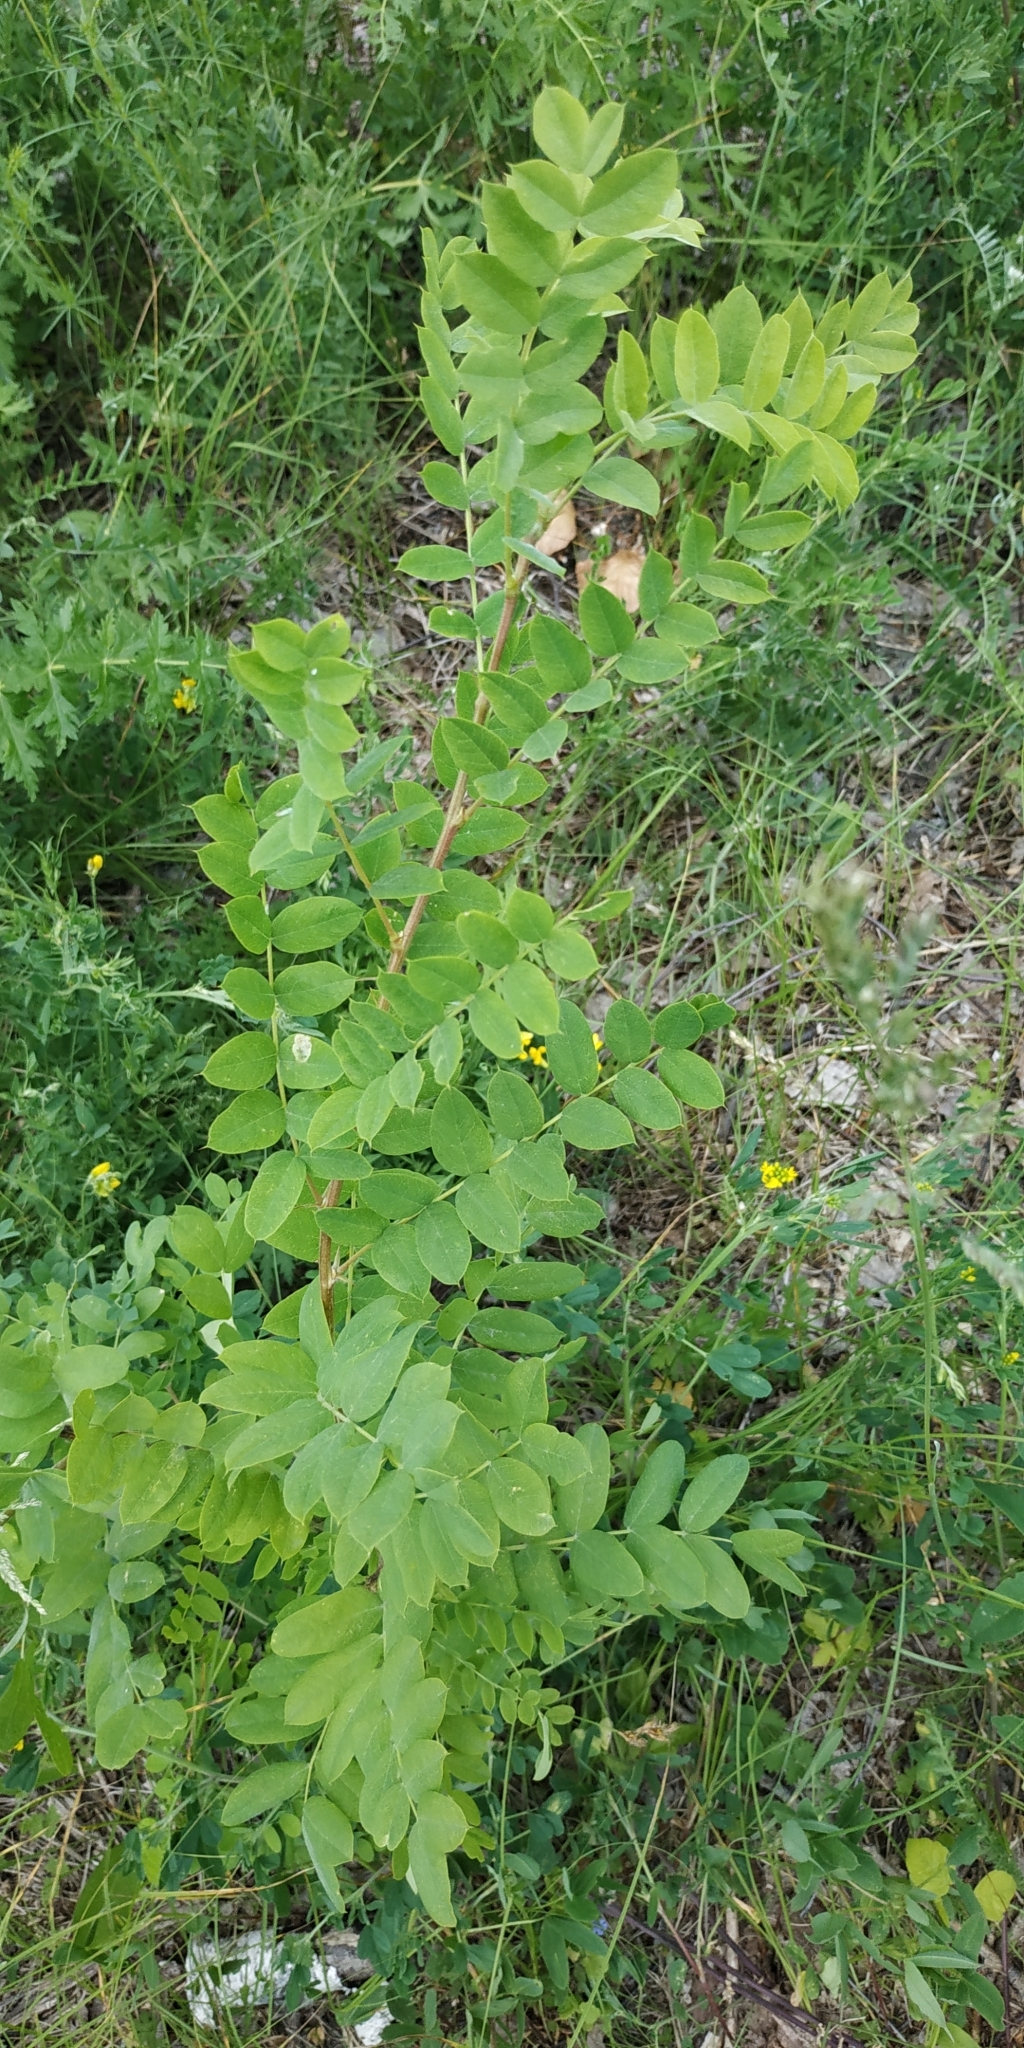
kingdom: Plantae
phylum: Tracheophyta
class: Magnoliopsida
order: Fabales
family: Fabaceae
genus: Caragana
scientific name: Caragana arborescens
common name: Siberian peashrub
